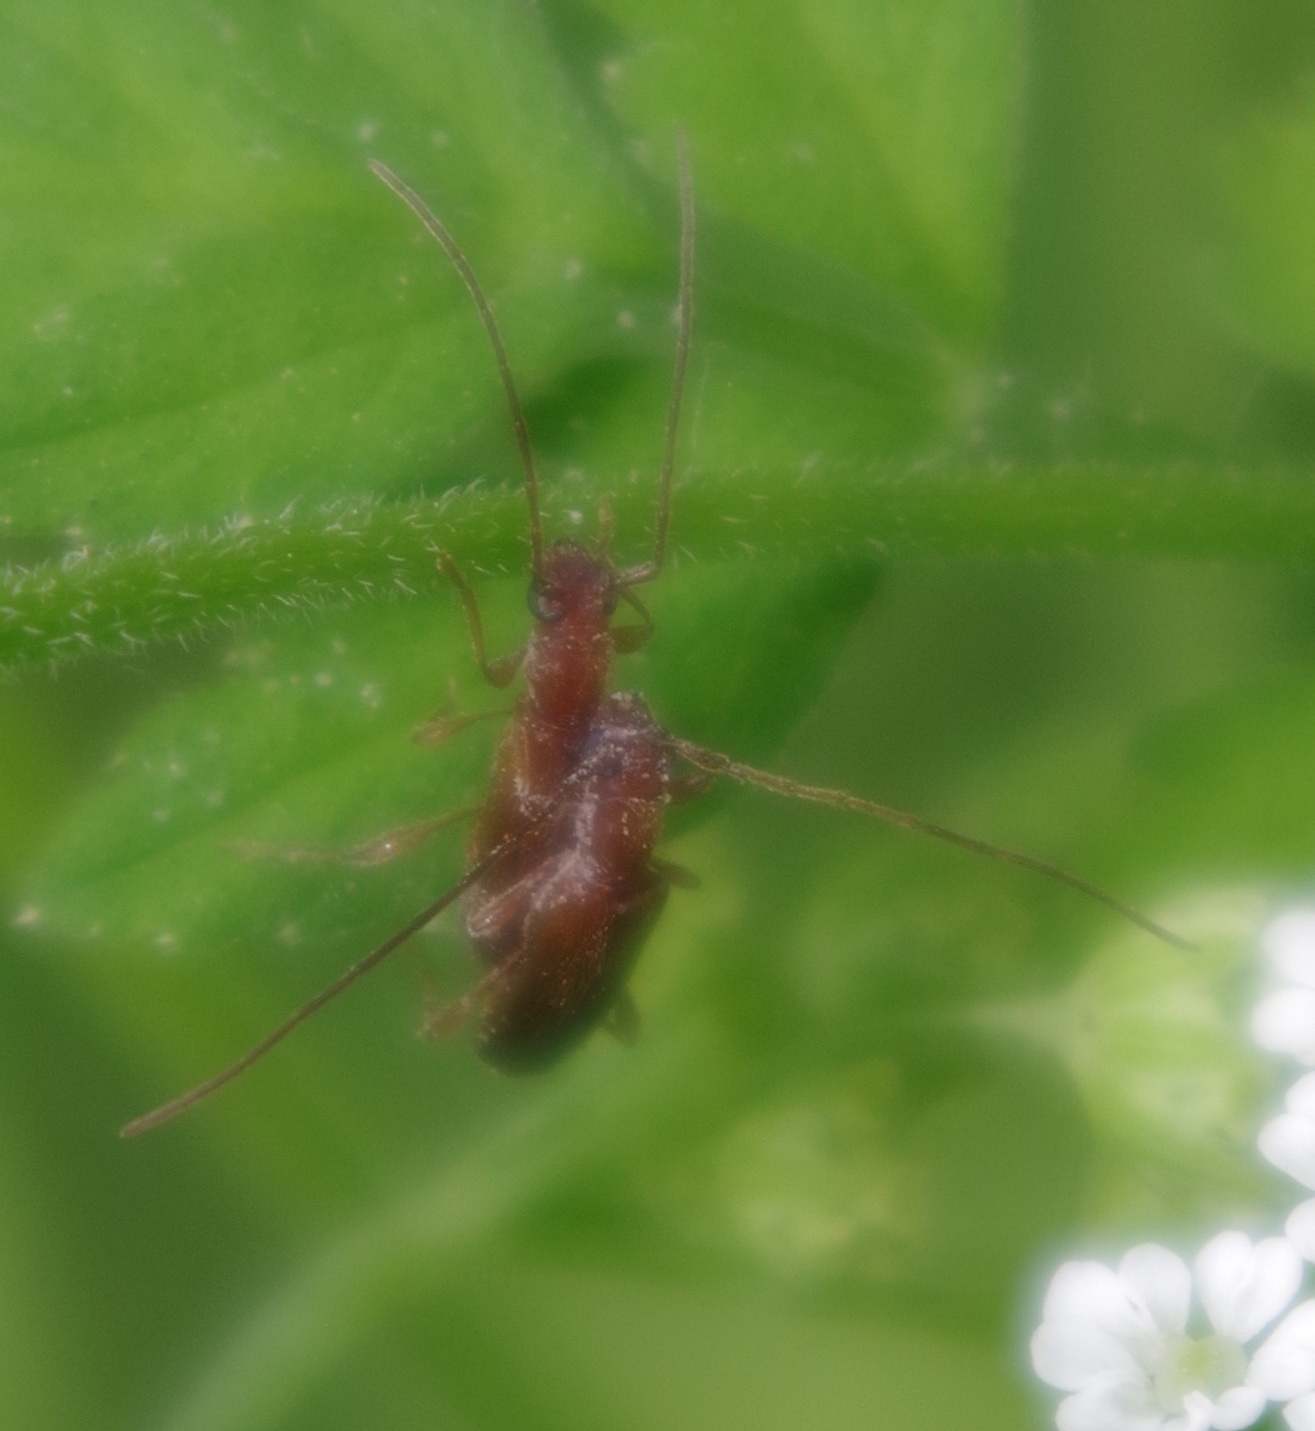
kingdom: Animalia
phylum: Arthropoda
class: Insecta
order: Coleoptera
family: Cerambycidae
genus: Obrium
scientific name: Obrium brunneum
